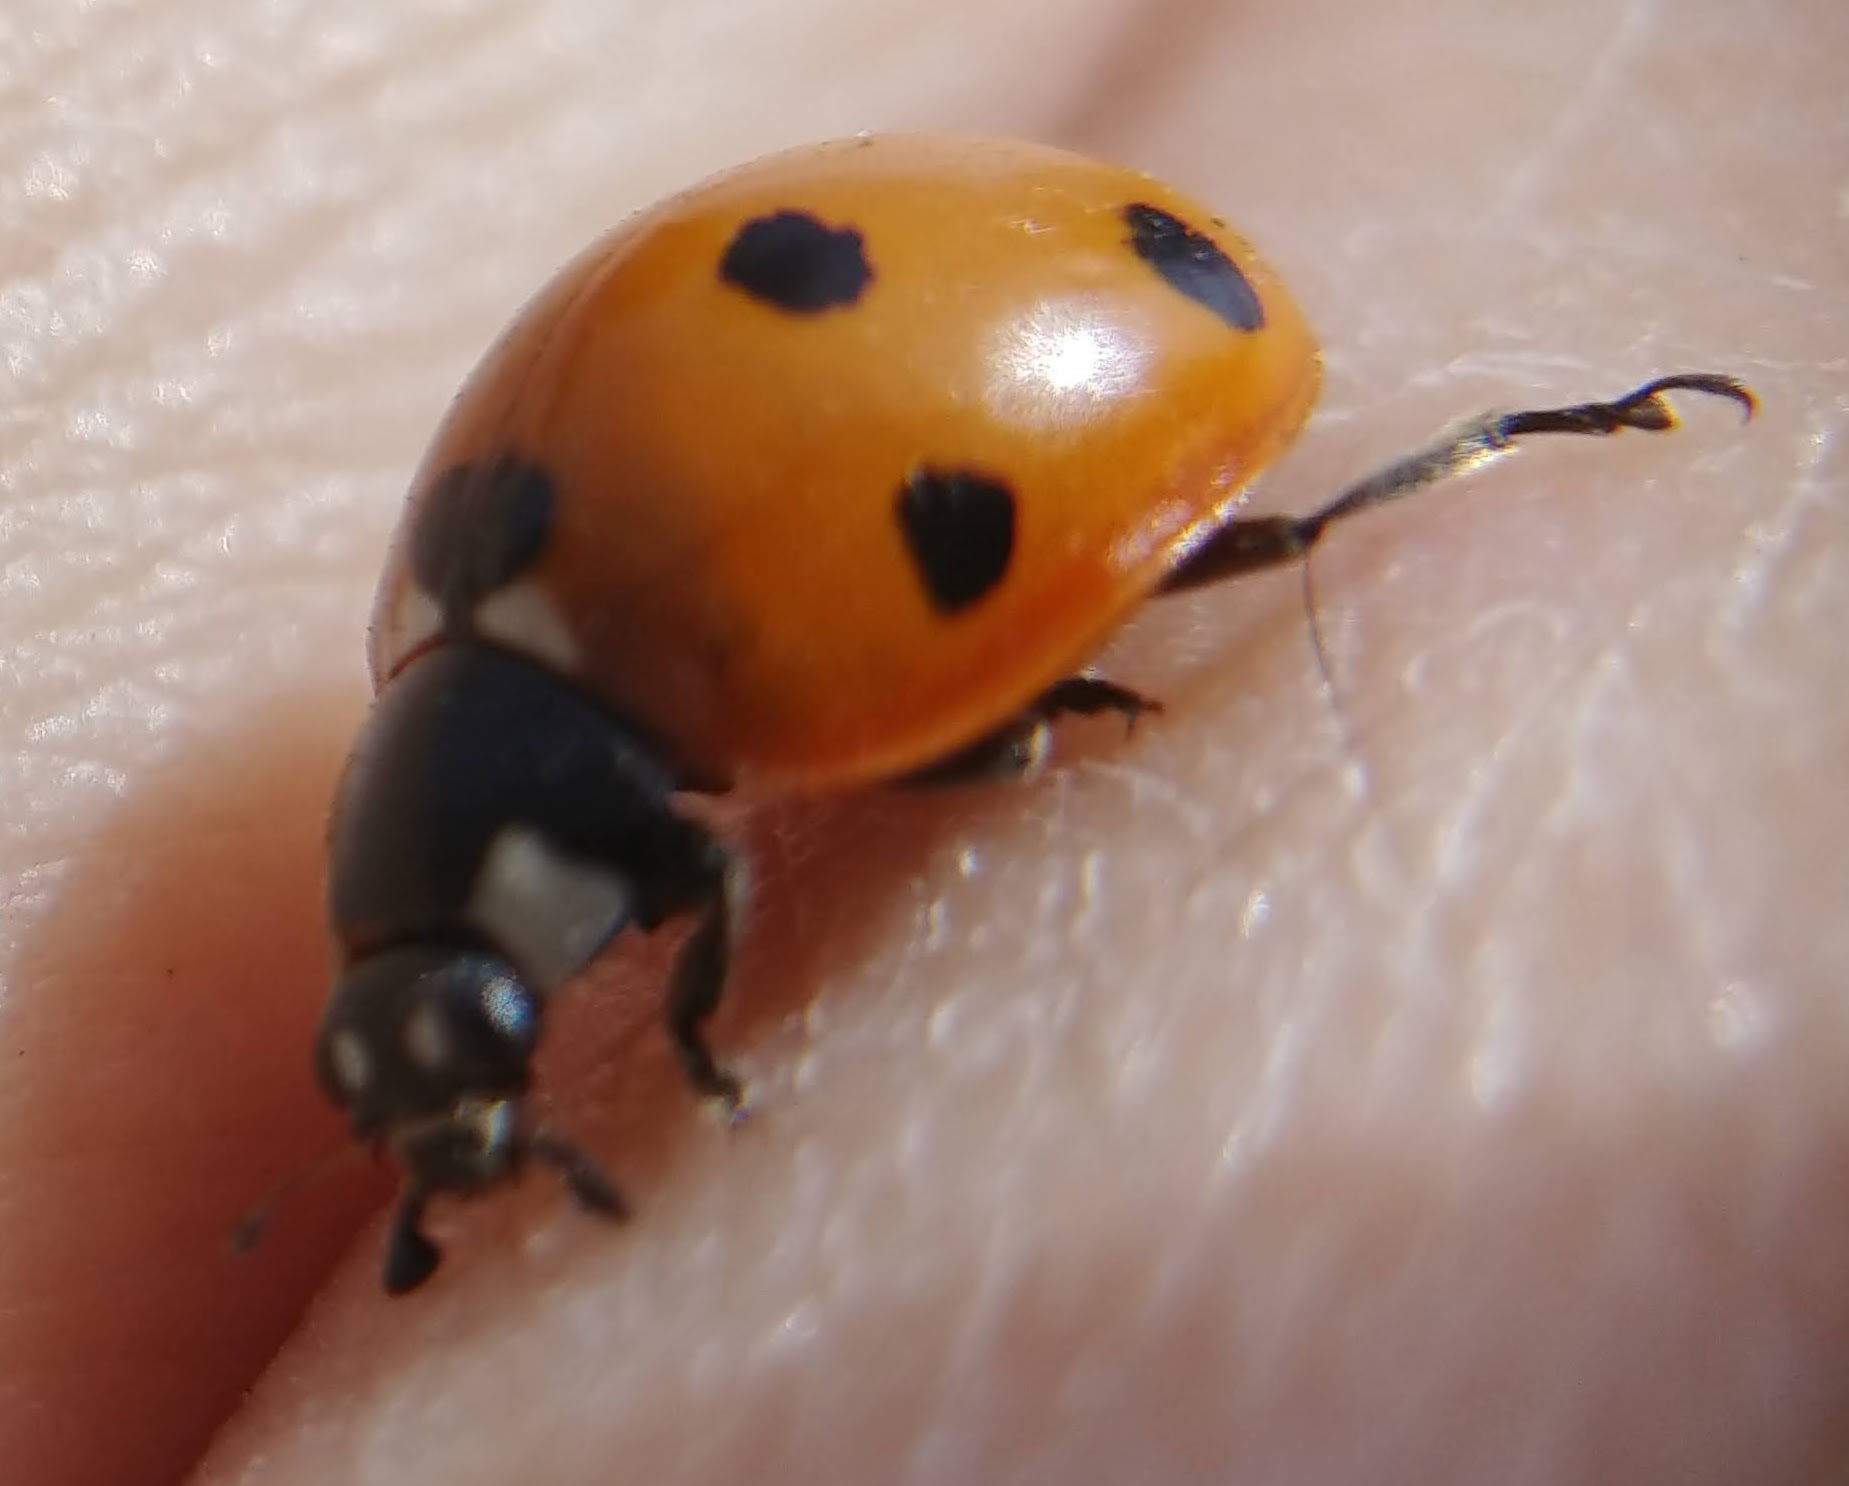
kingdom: Animalia
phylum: Arthropoda
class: Insecta
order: Coleoptera
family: Coccinellidae
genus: Coccinella
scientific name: Coccinella septempunctata
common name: Sevenspotted lady beetle
